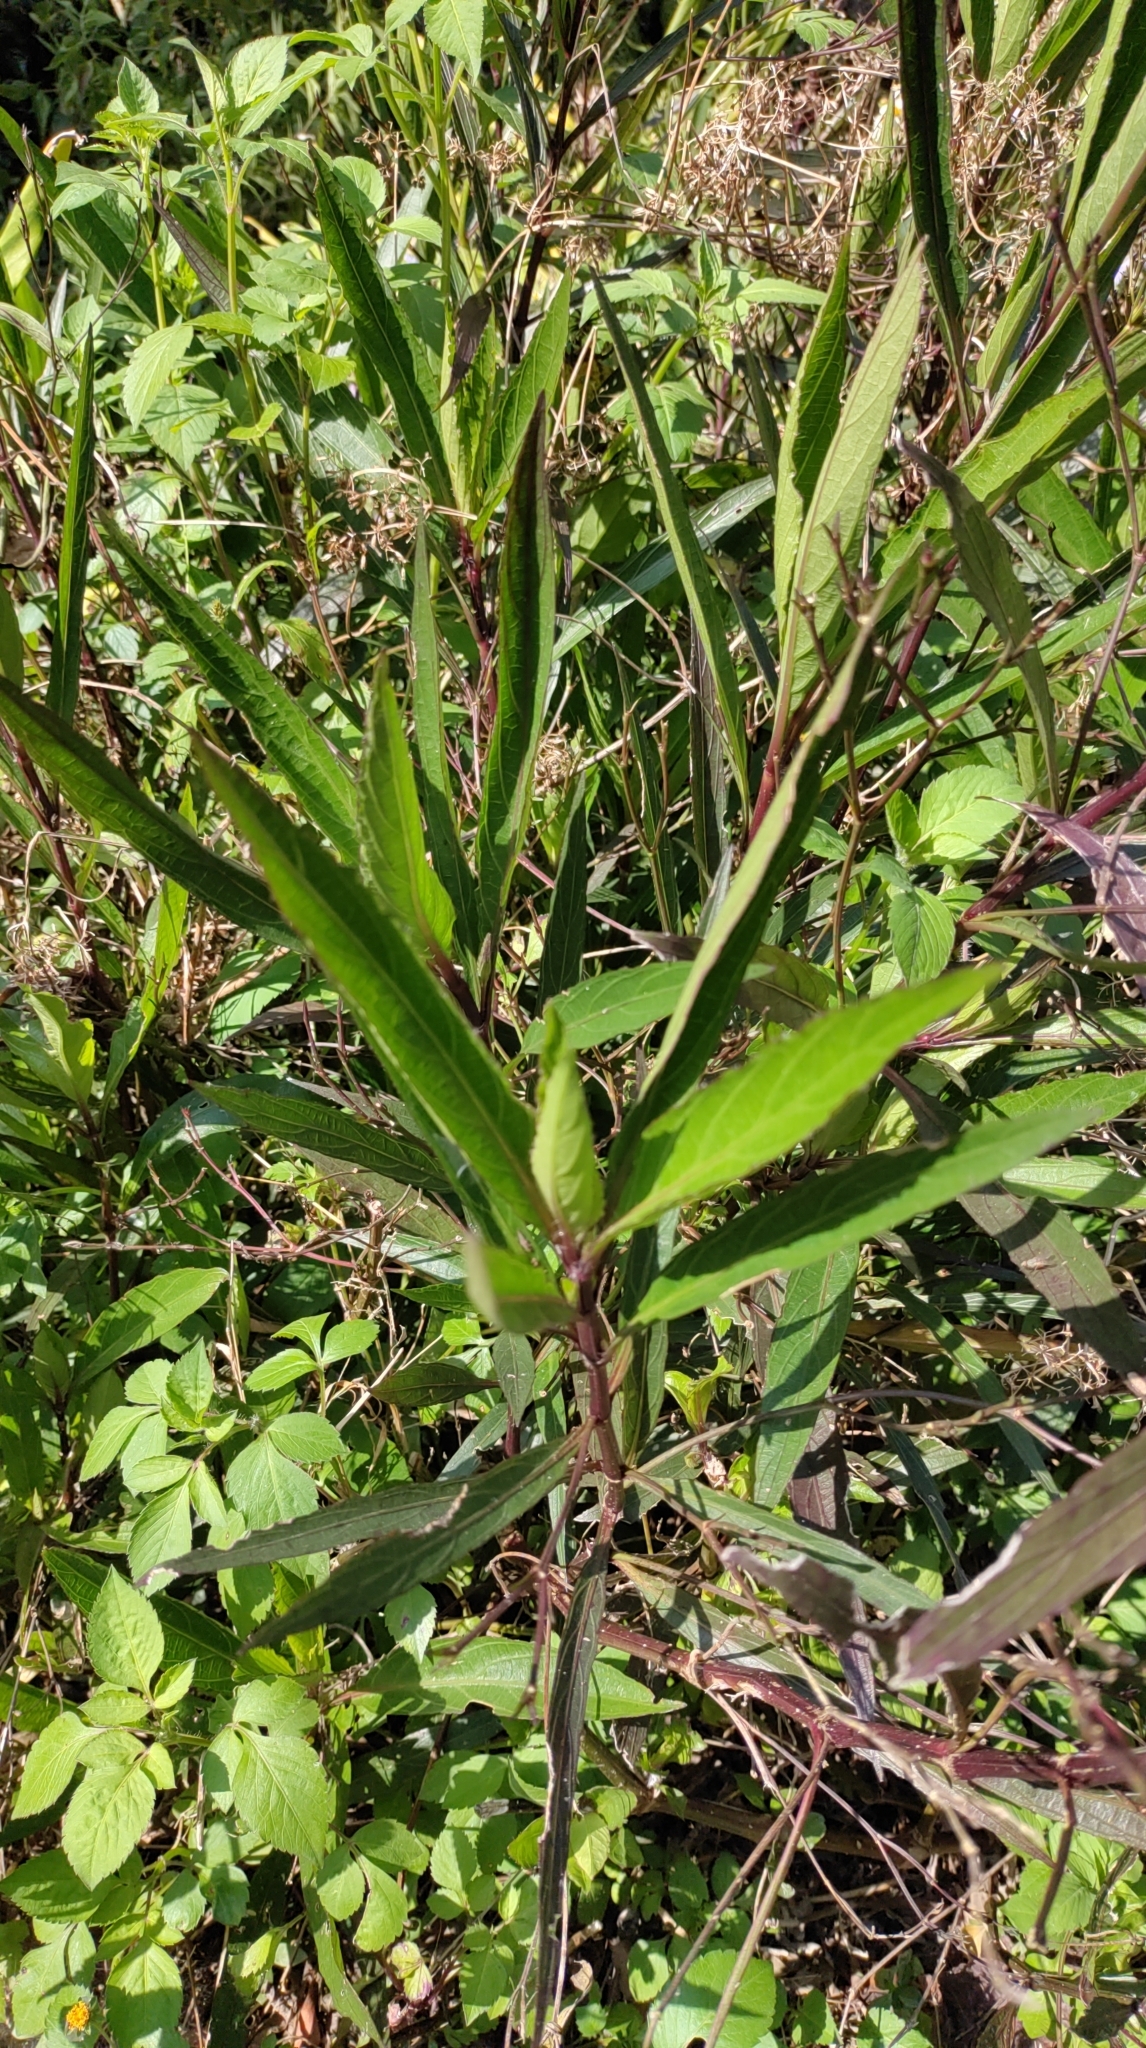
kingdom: Plantae
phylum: Tracheophyta
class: Magnoliopsida
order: Lamiales
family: Acanthaceae
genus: Ruellia
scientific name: Ruellia simplex
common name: Softseed wild petunia
